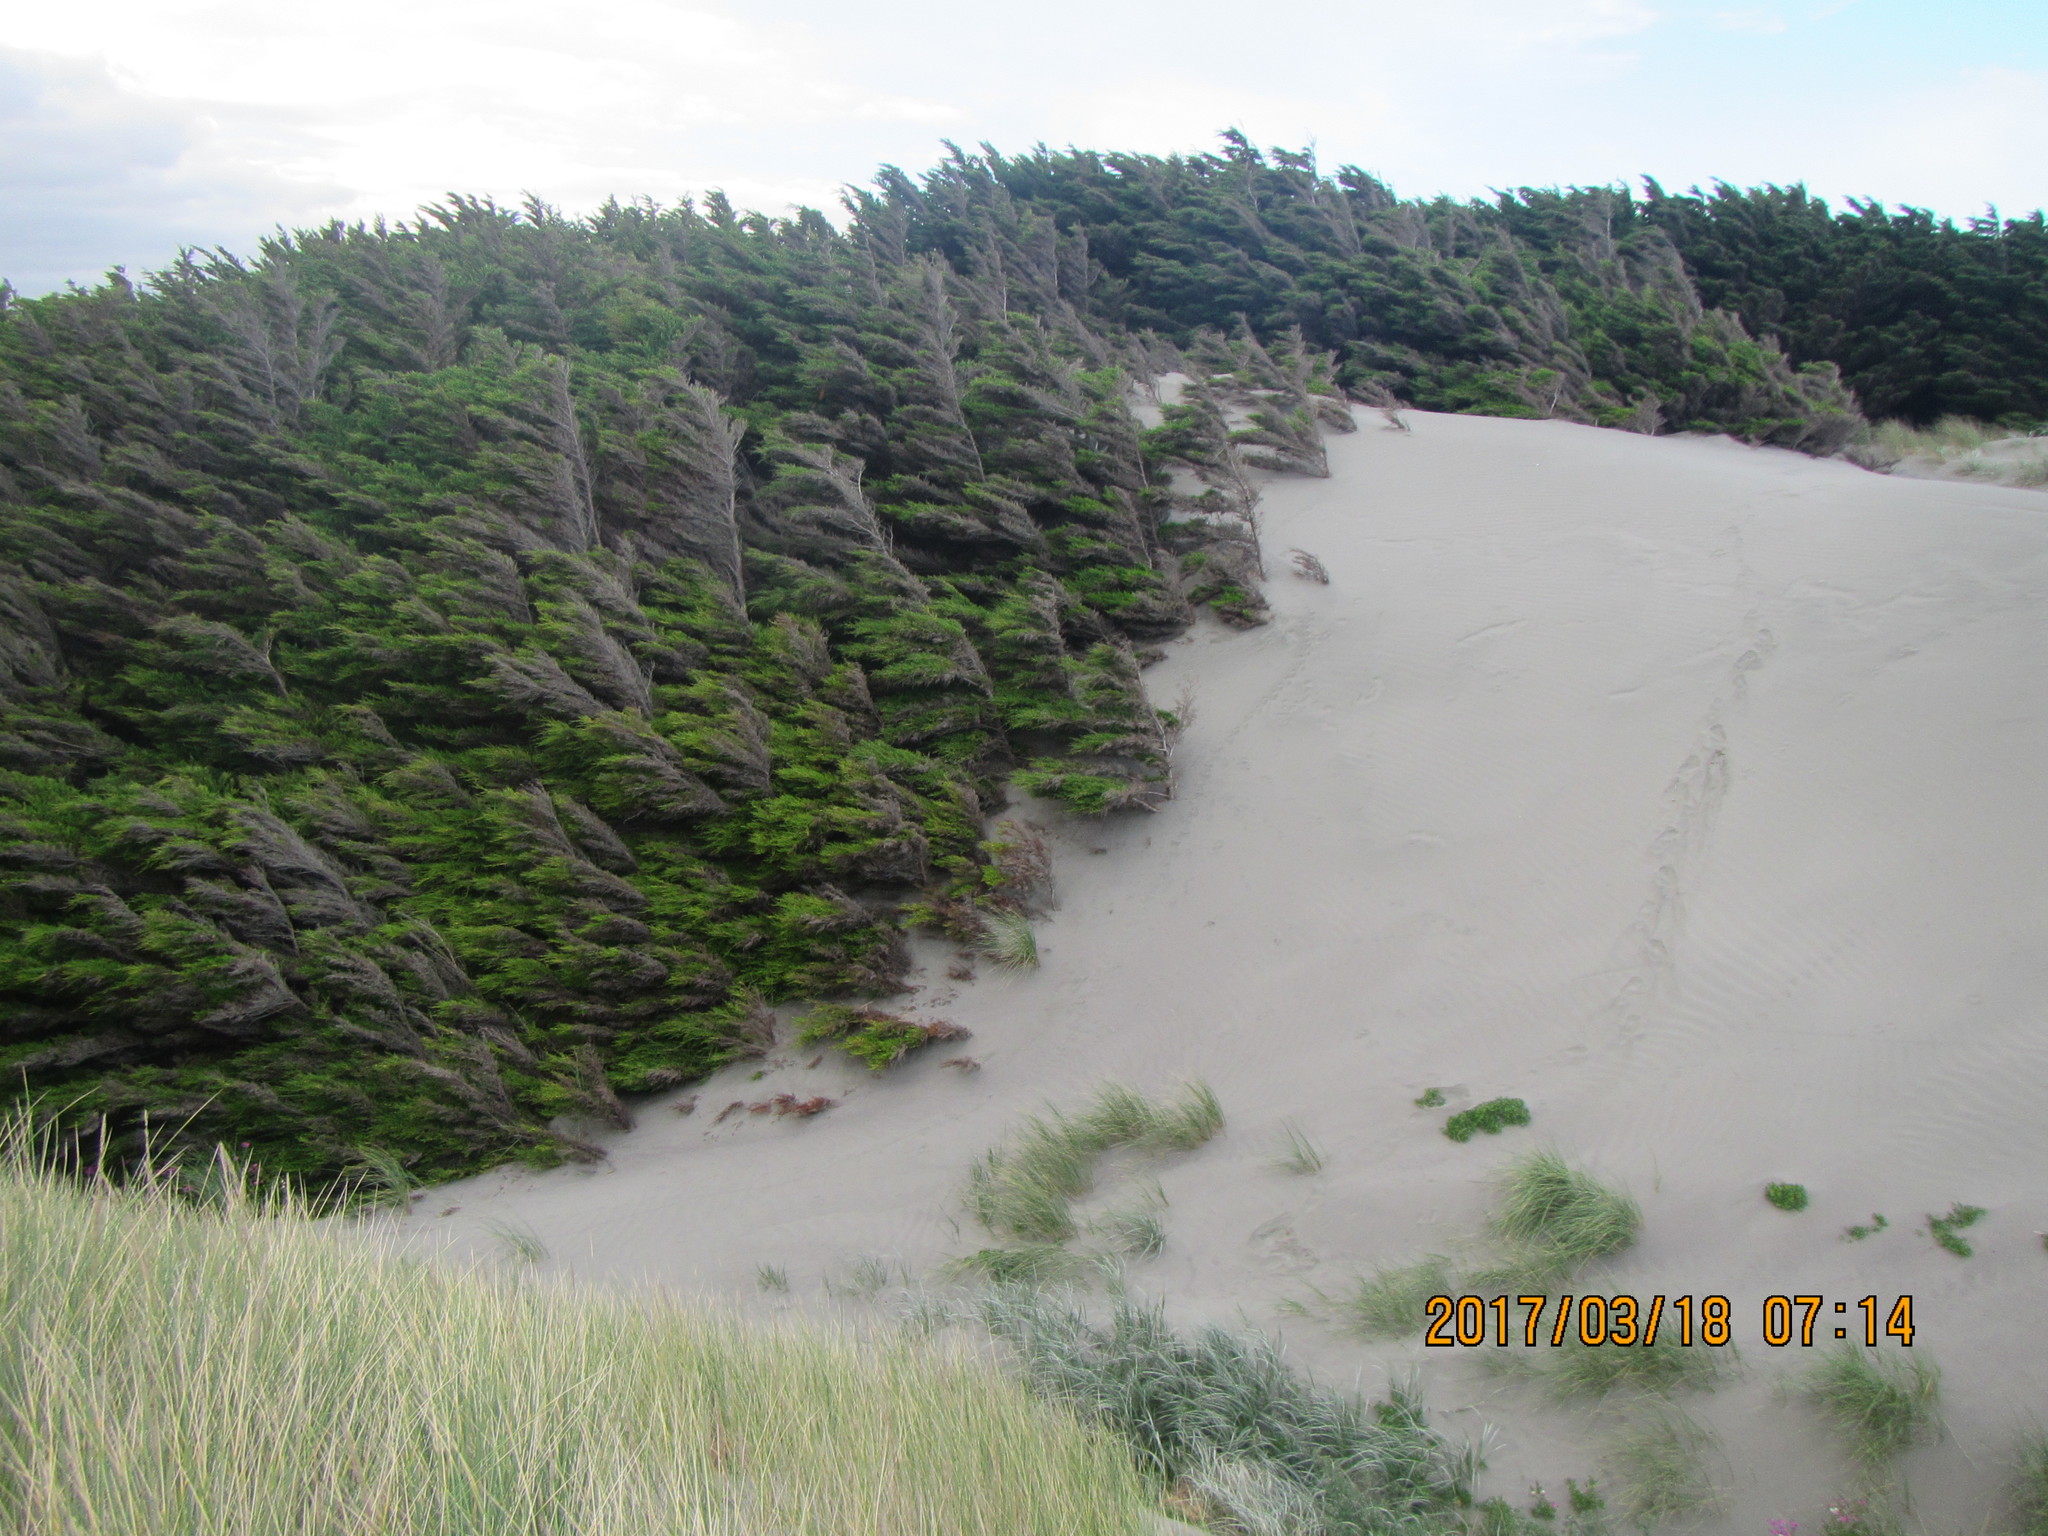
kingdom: Plantae
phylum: Tracheophyta
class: Pinopsida
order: Pinales
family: Cupressaceae
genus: Cupressus
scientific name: Cupressus macrocarpa
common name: Monterey cypress
